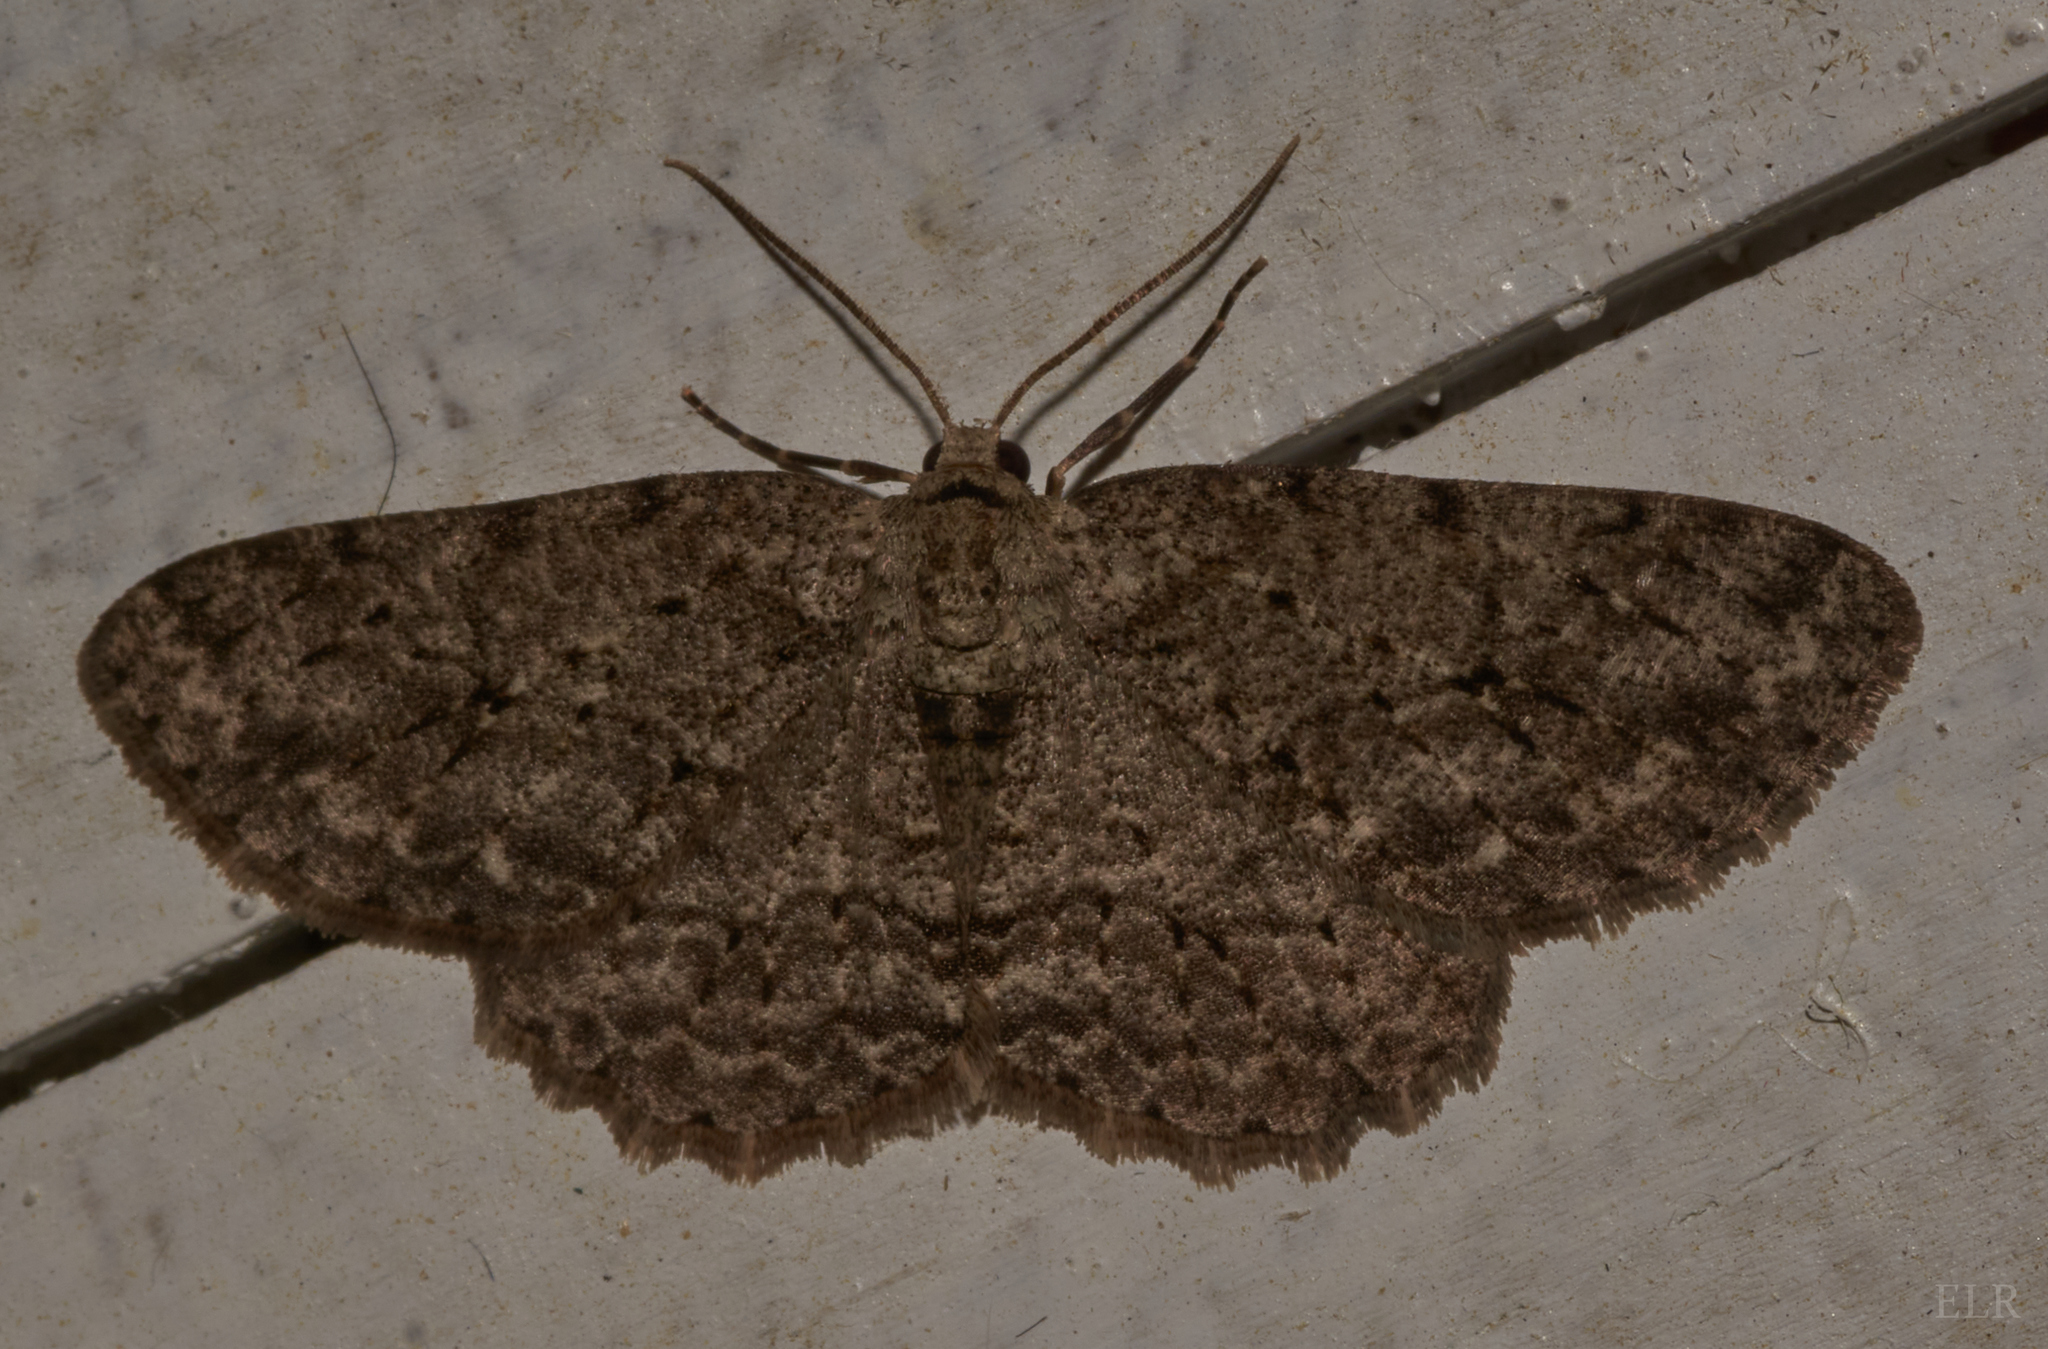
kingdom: Animalia
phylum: Arthropoda
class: Insecta
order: Lepidoptera
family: Geometridae
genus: Ectropis
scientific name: Ectropis crepuscularia
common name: Engrailed
